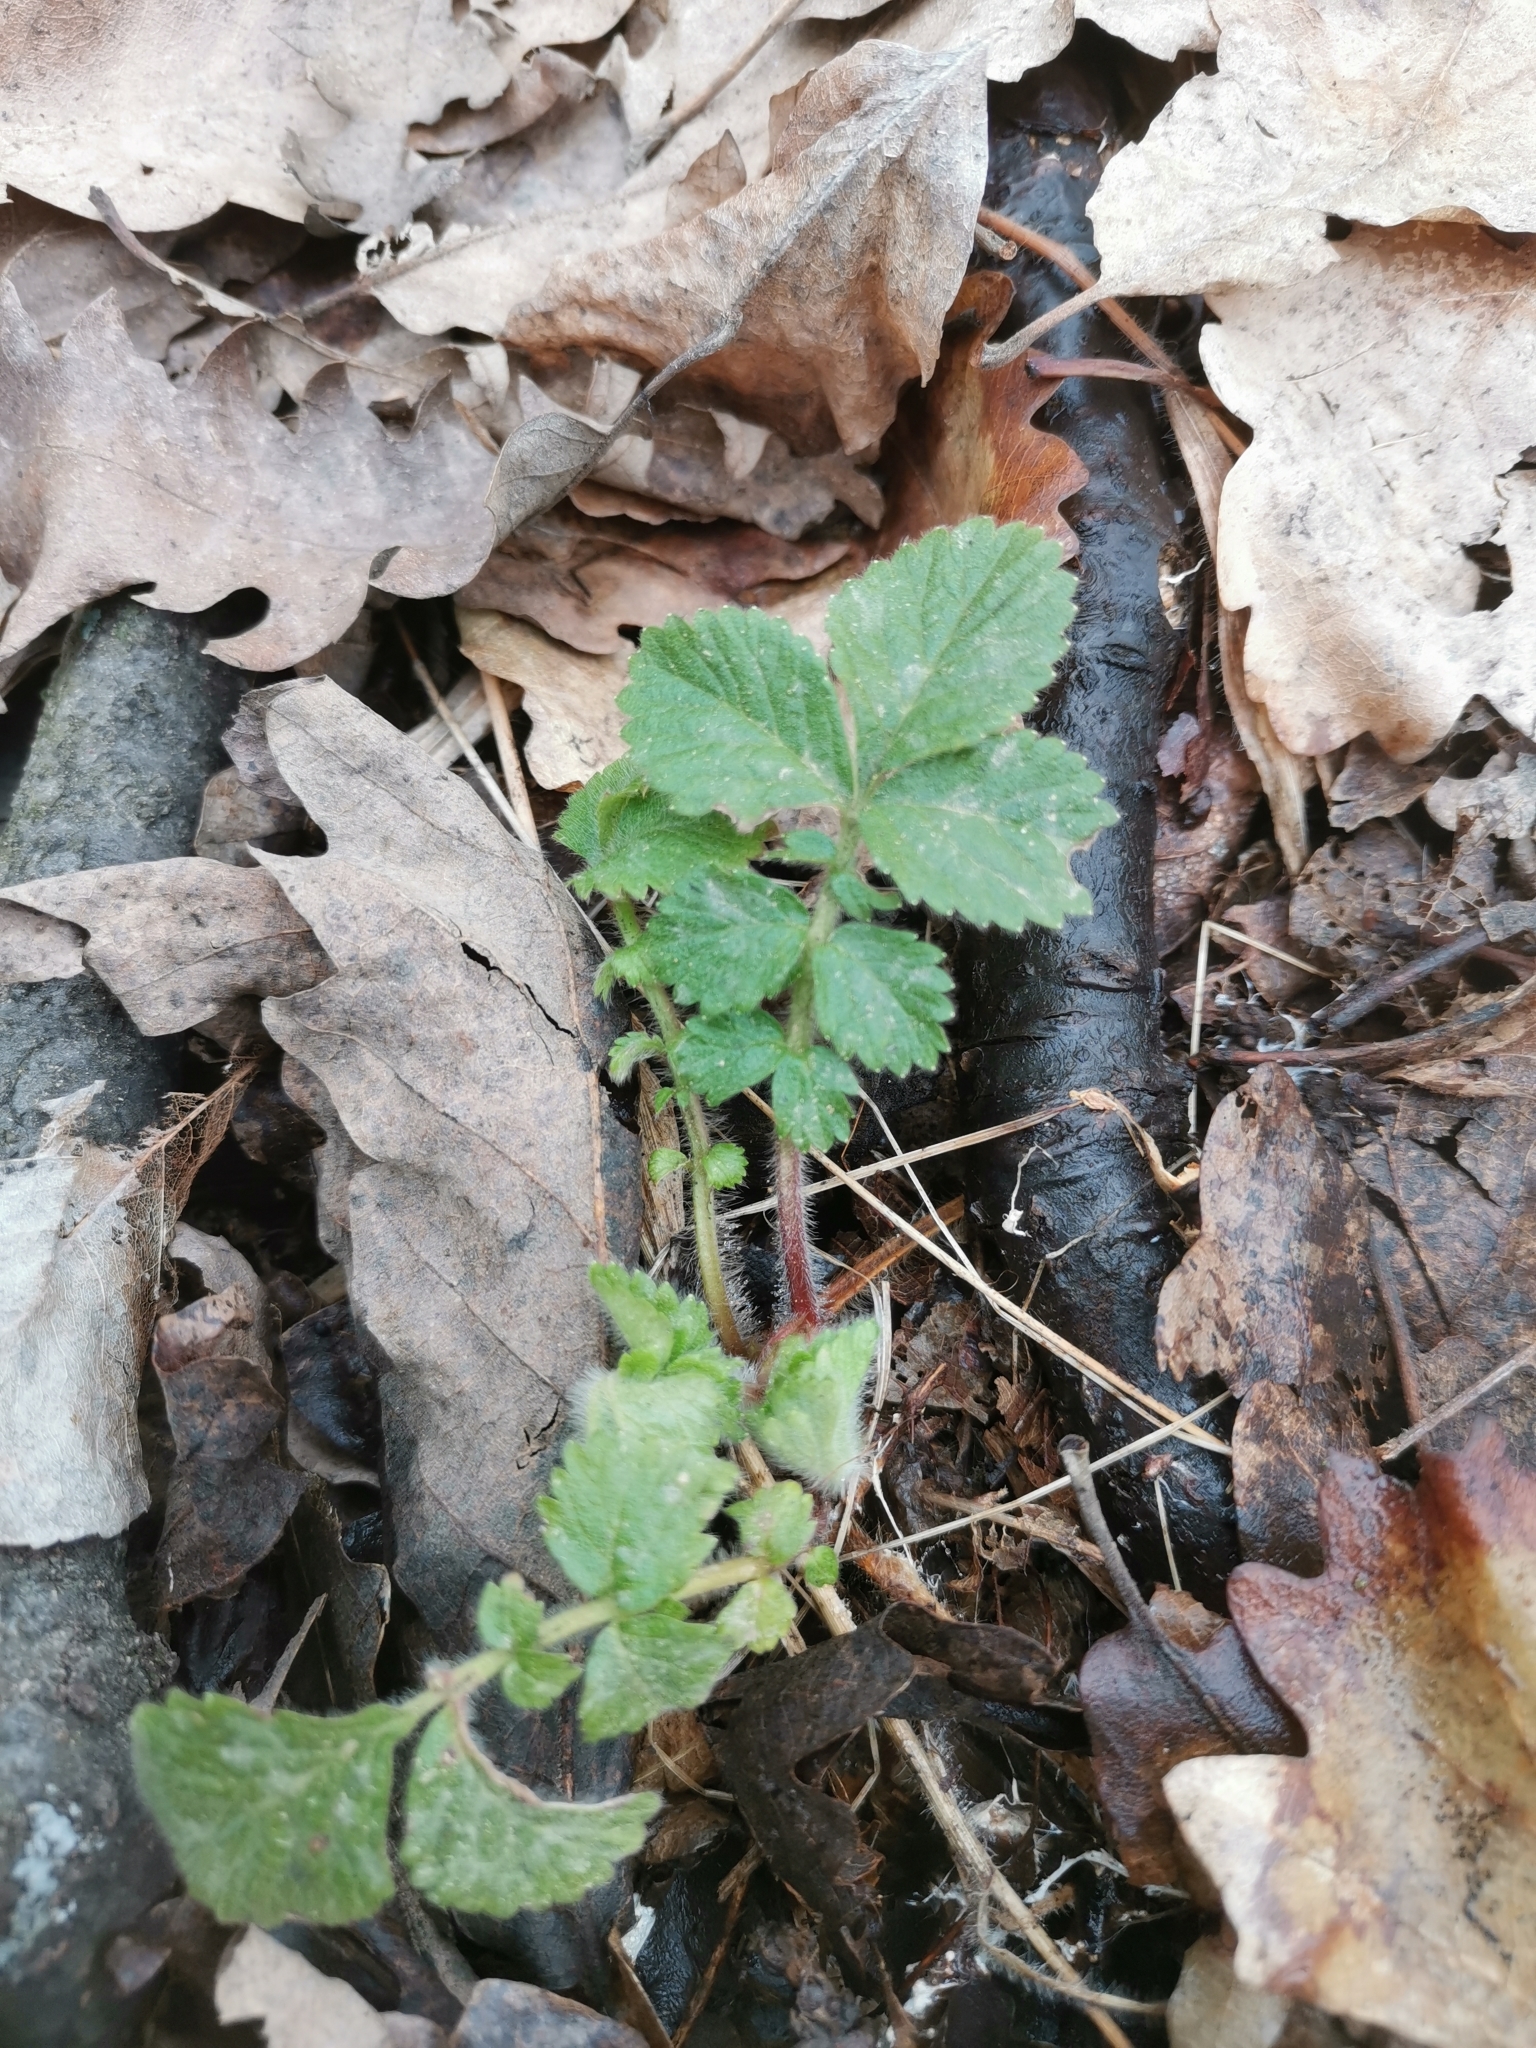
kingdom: Plantae
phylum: Tracheophyta
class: Magnoliopsida
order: Rosales
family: Rosaceae
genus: Aremonia
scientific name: Aremonia agrimonoides
